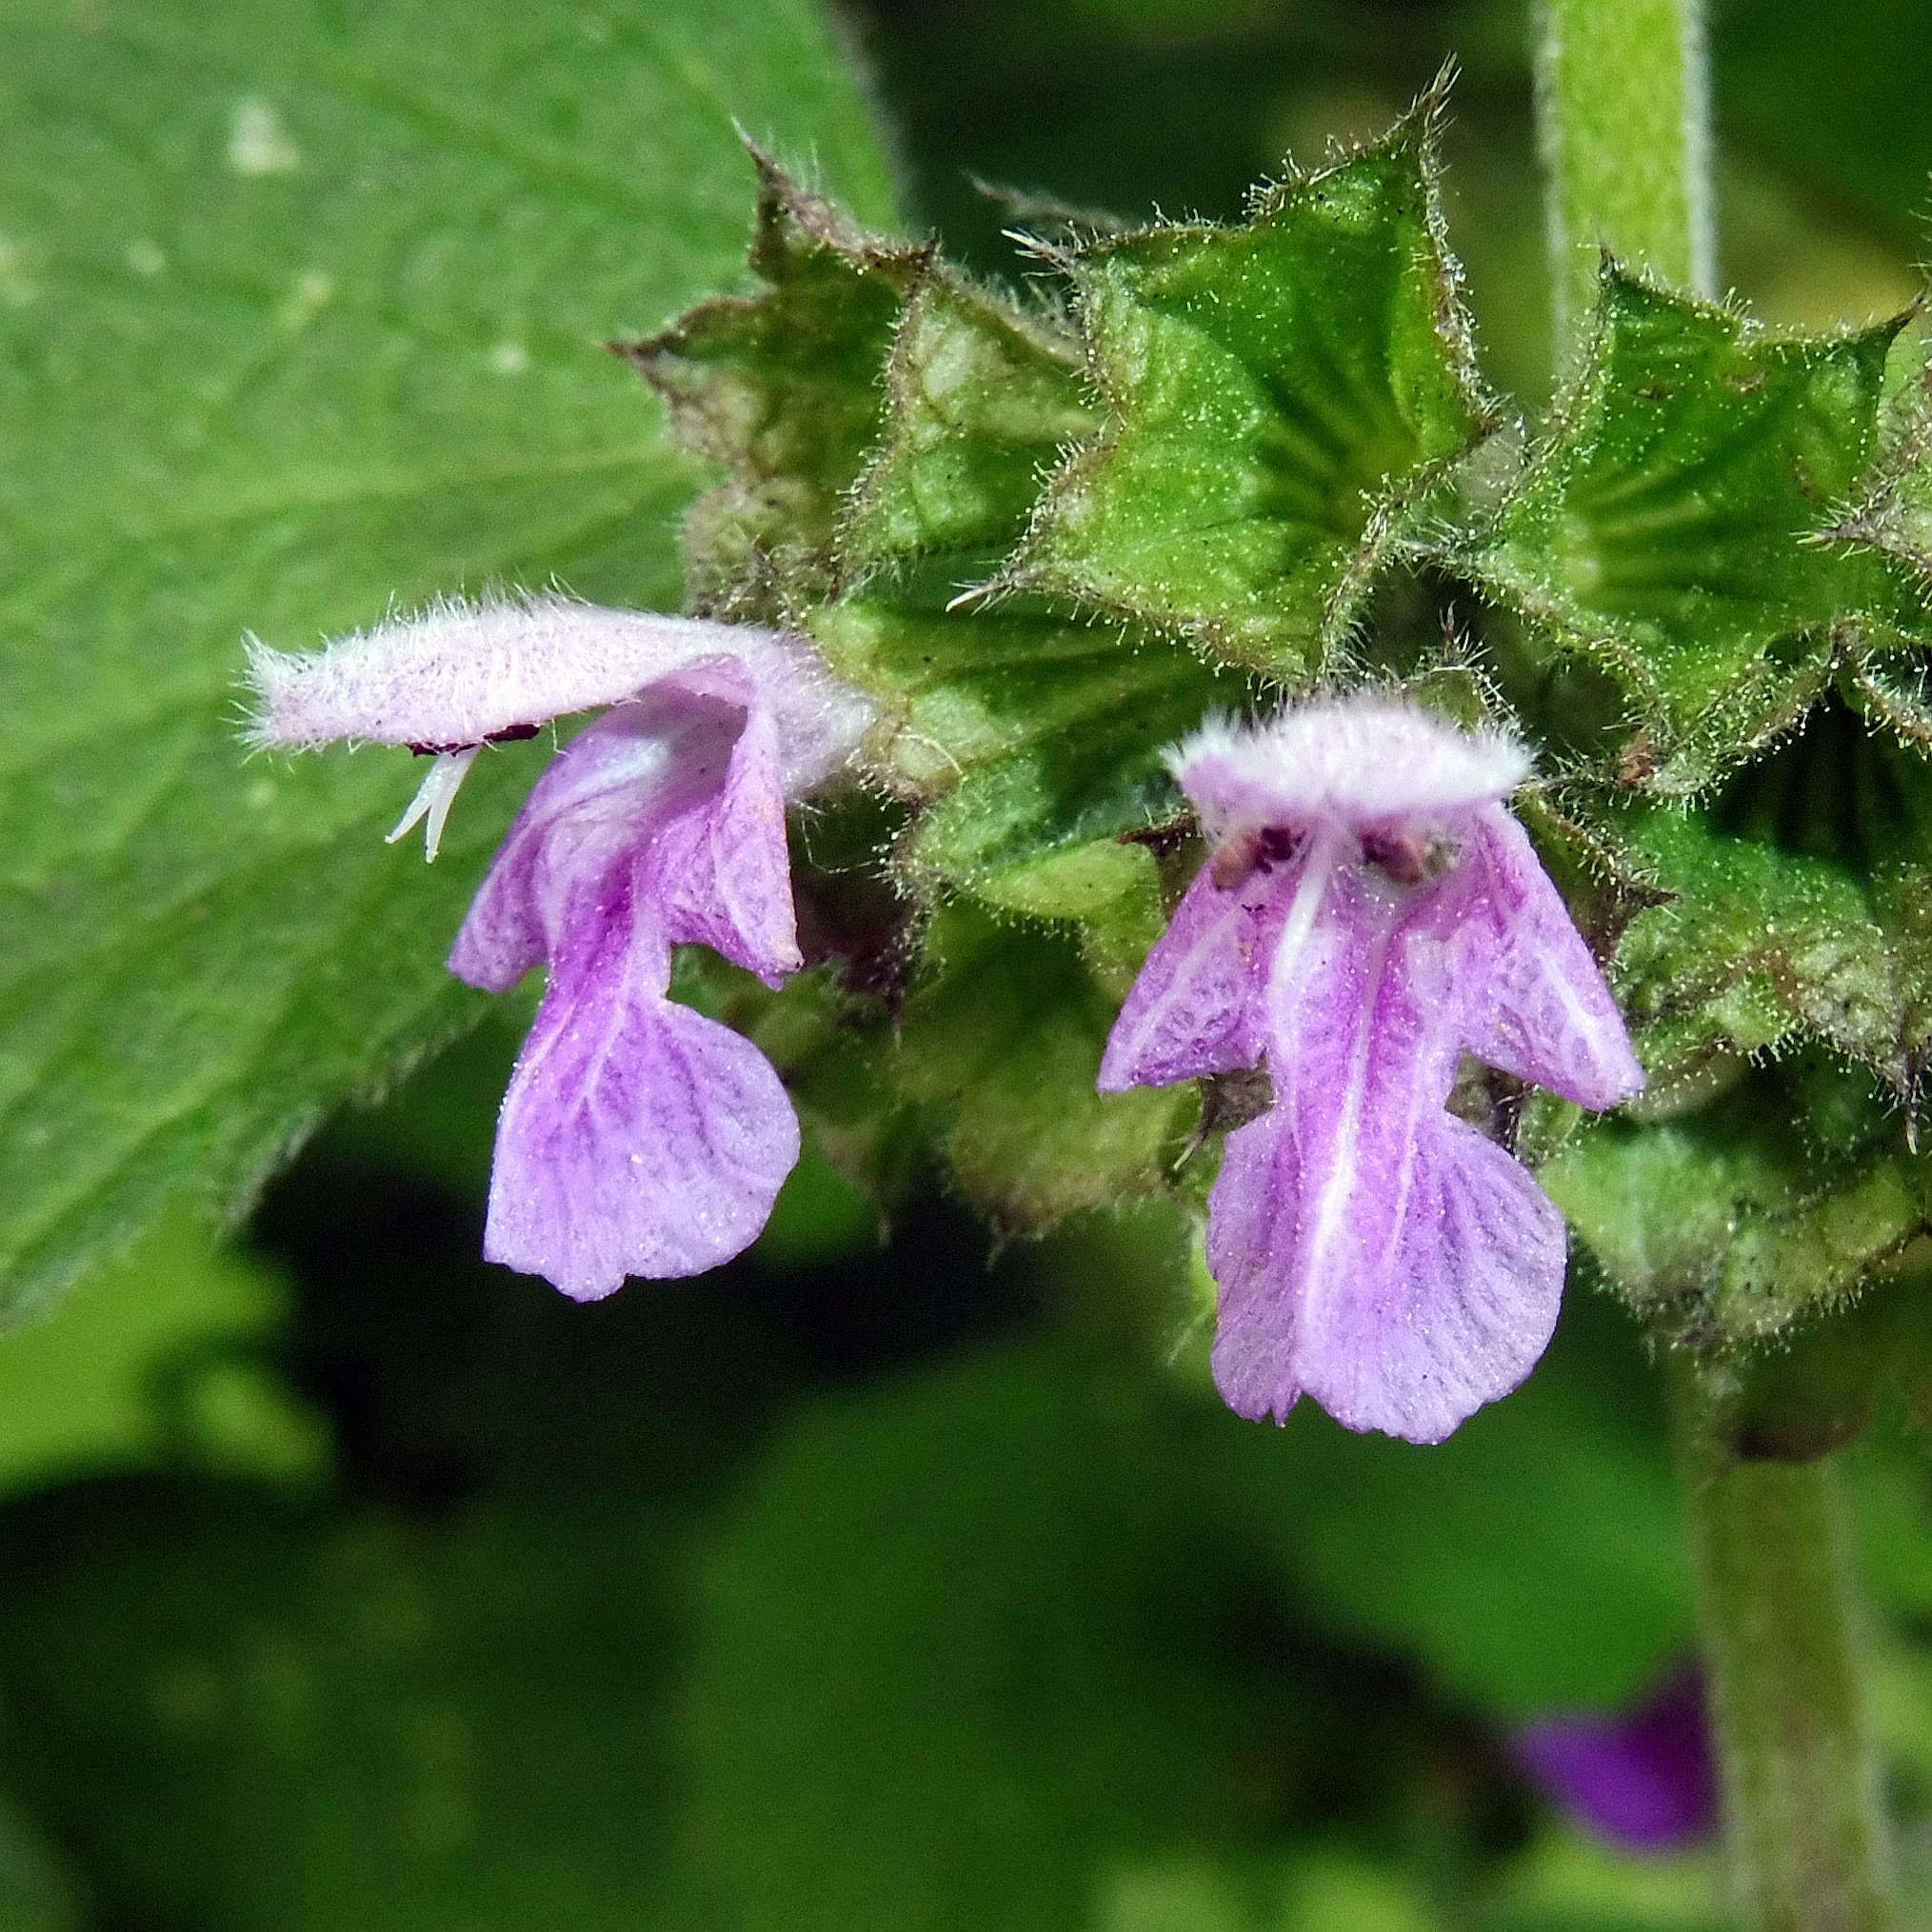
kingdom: Plantae
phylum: Tracheophyta
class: Magnoliopsida
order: Lamiales
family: Lamiaceae
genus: Ballota
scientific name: Ballota nigra
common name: Black horehound
